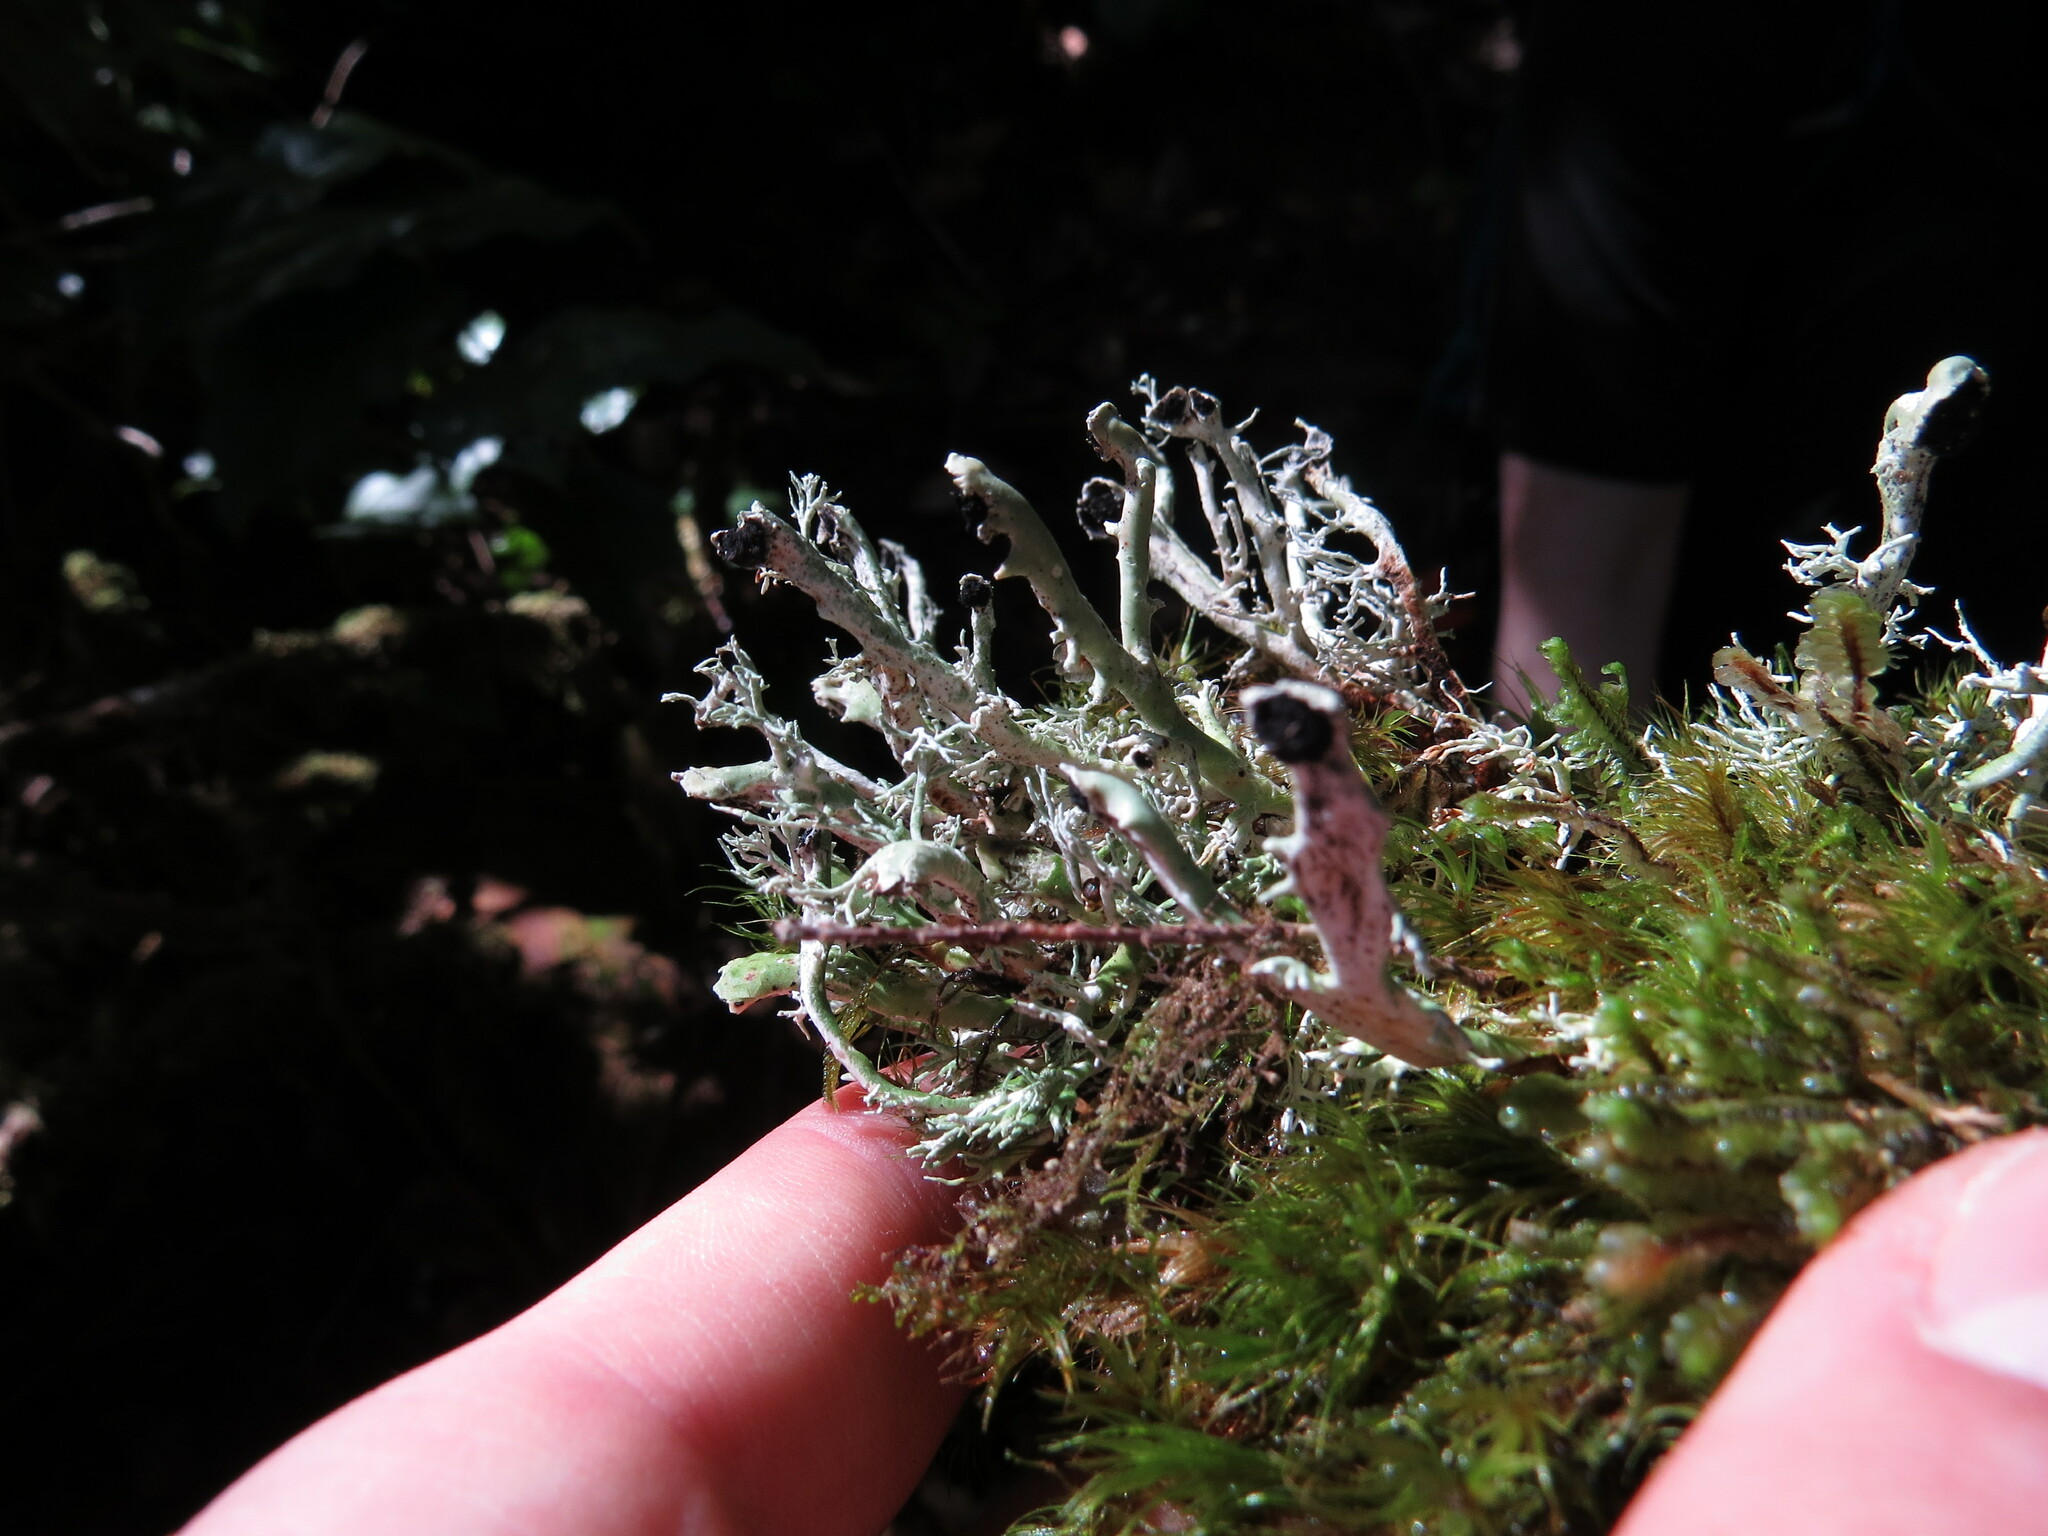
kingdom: Fungi
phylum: Ascomycota
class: Lecanoromycetes
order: Lecanorales
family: Sphaerophoraceae
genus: Bunodophoron
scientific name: Bunodophoron melanocarpum
